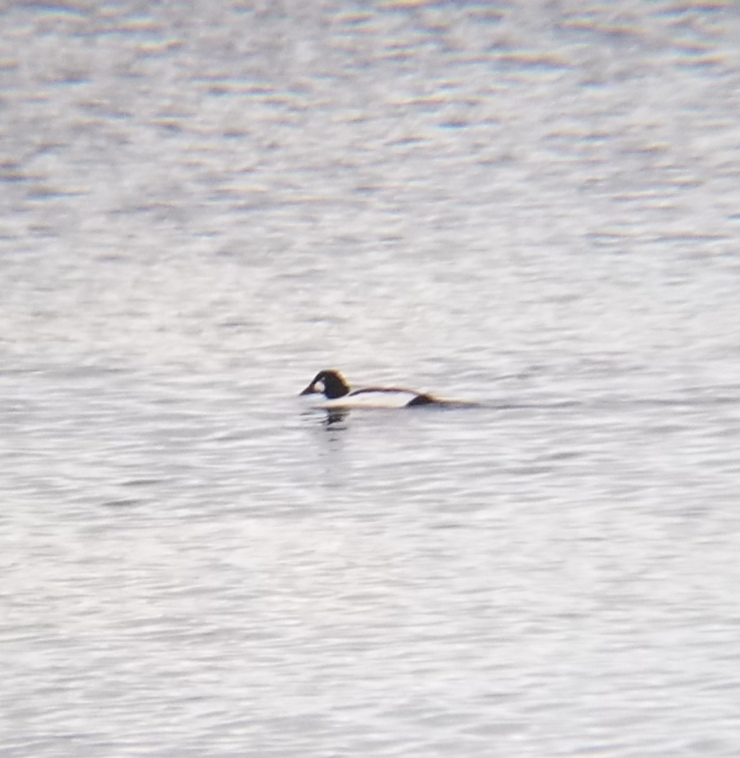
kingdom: Animalia
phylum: Chordata
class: Aves
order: Anseriformes
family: Anatidae
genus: Bucephala
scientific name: Bucephala clangula
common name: Common goldeneye
